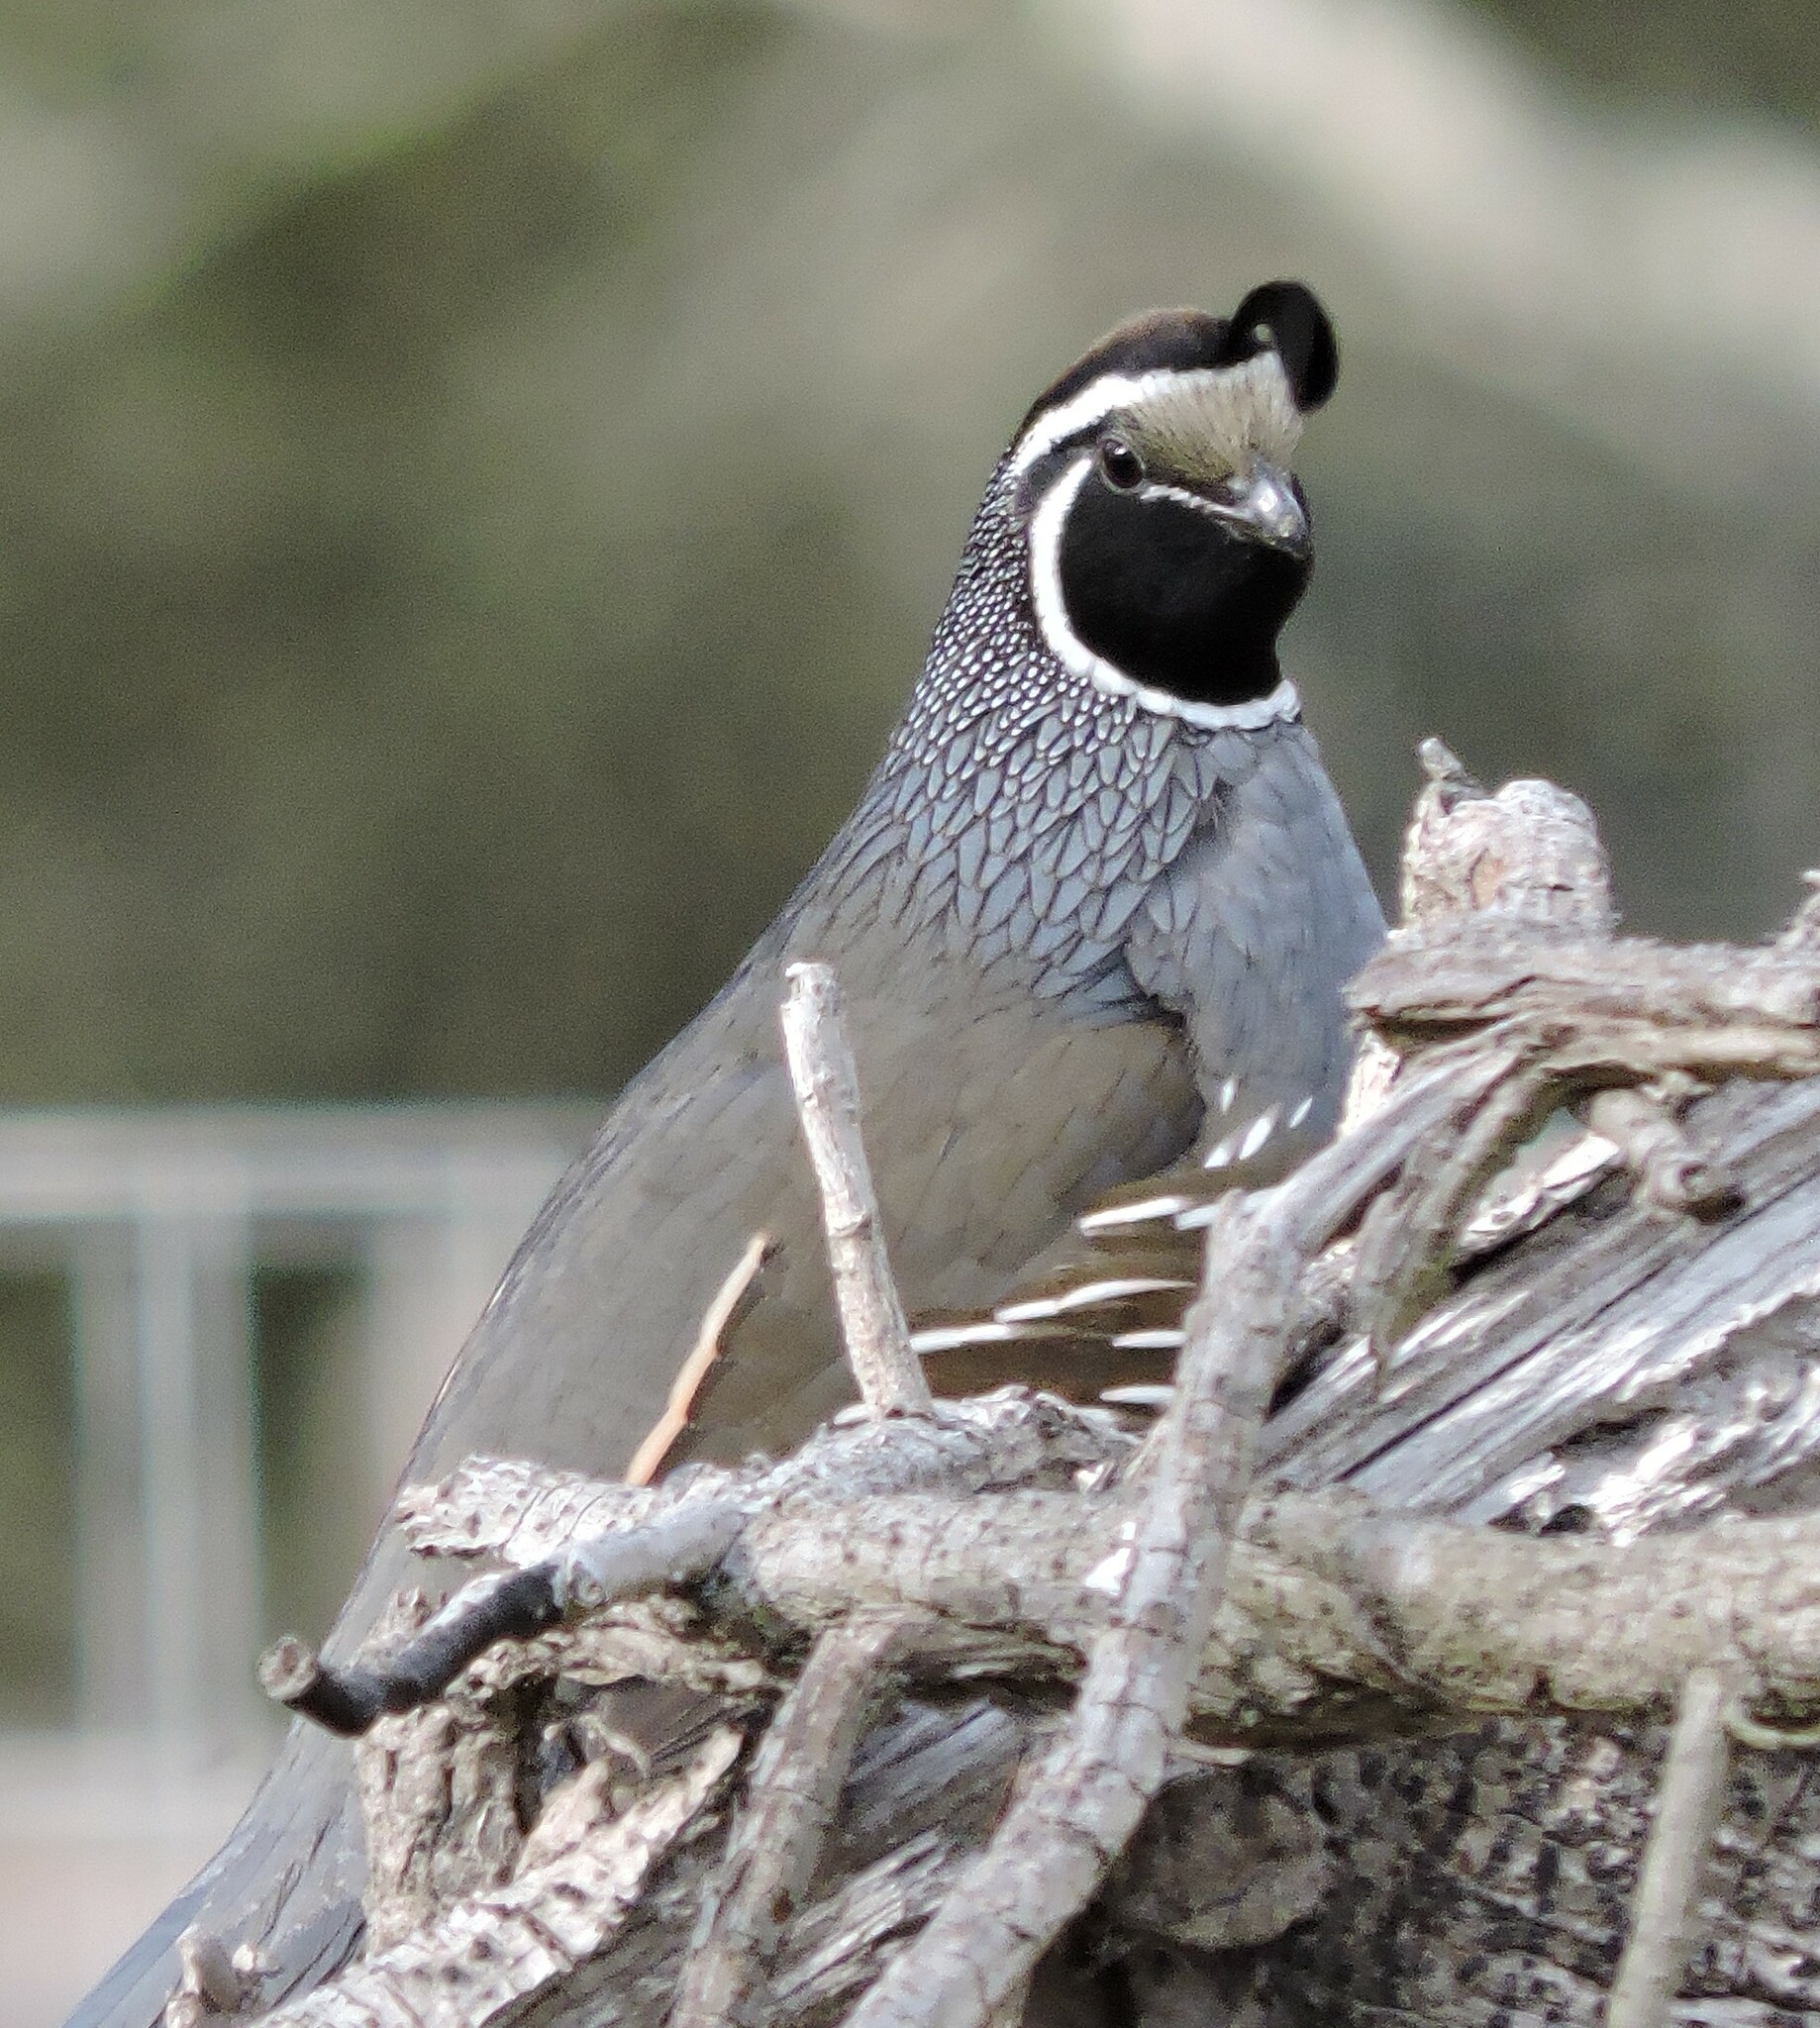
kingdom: Animalia
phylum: Chordata
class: Aves
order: Galliformes
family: Odontophoridae
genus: Callipepla
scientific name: Callipepla californica
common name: California quail
